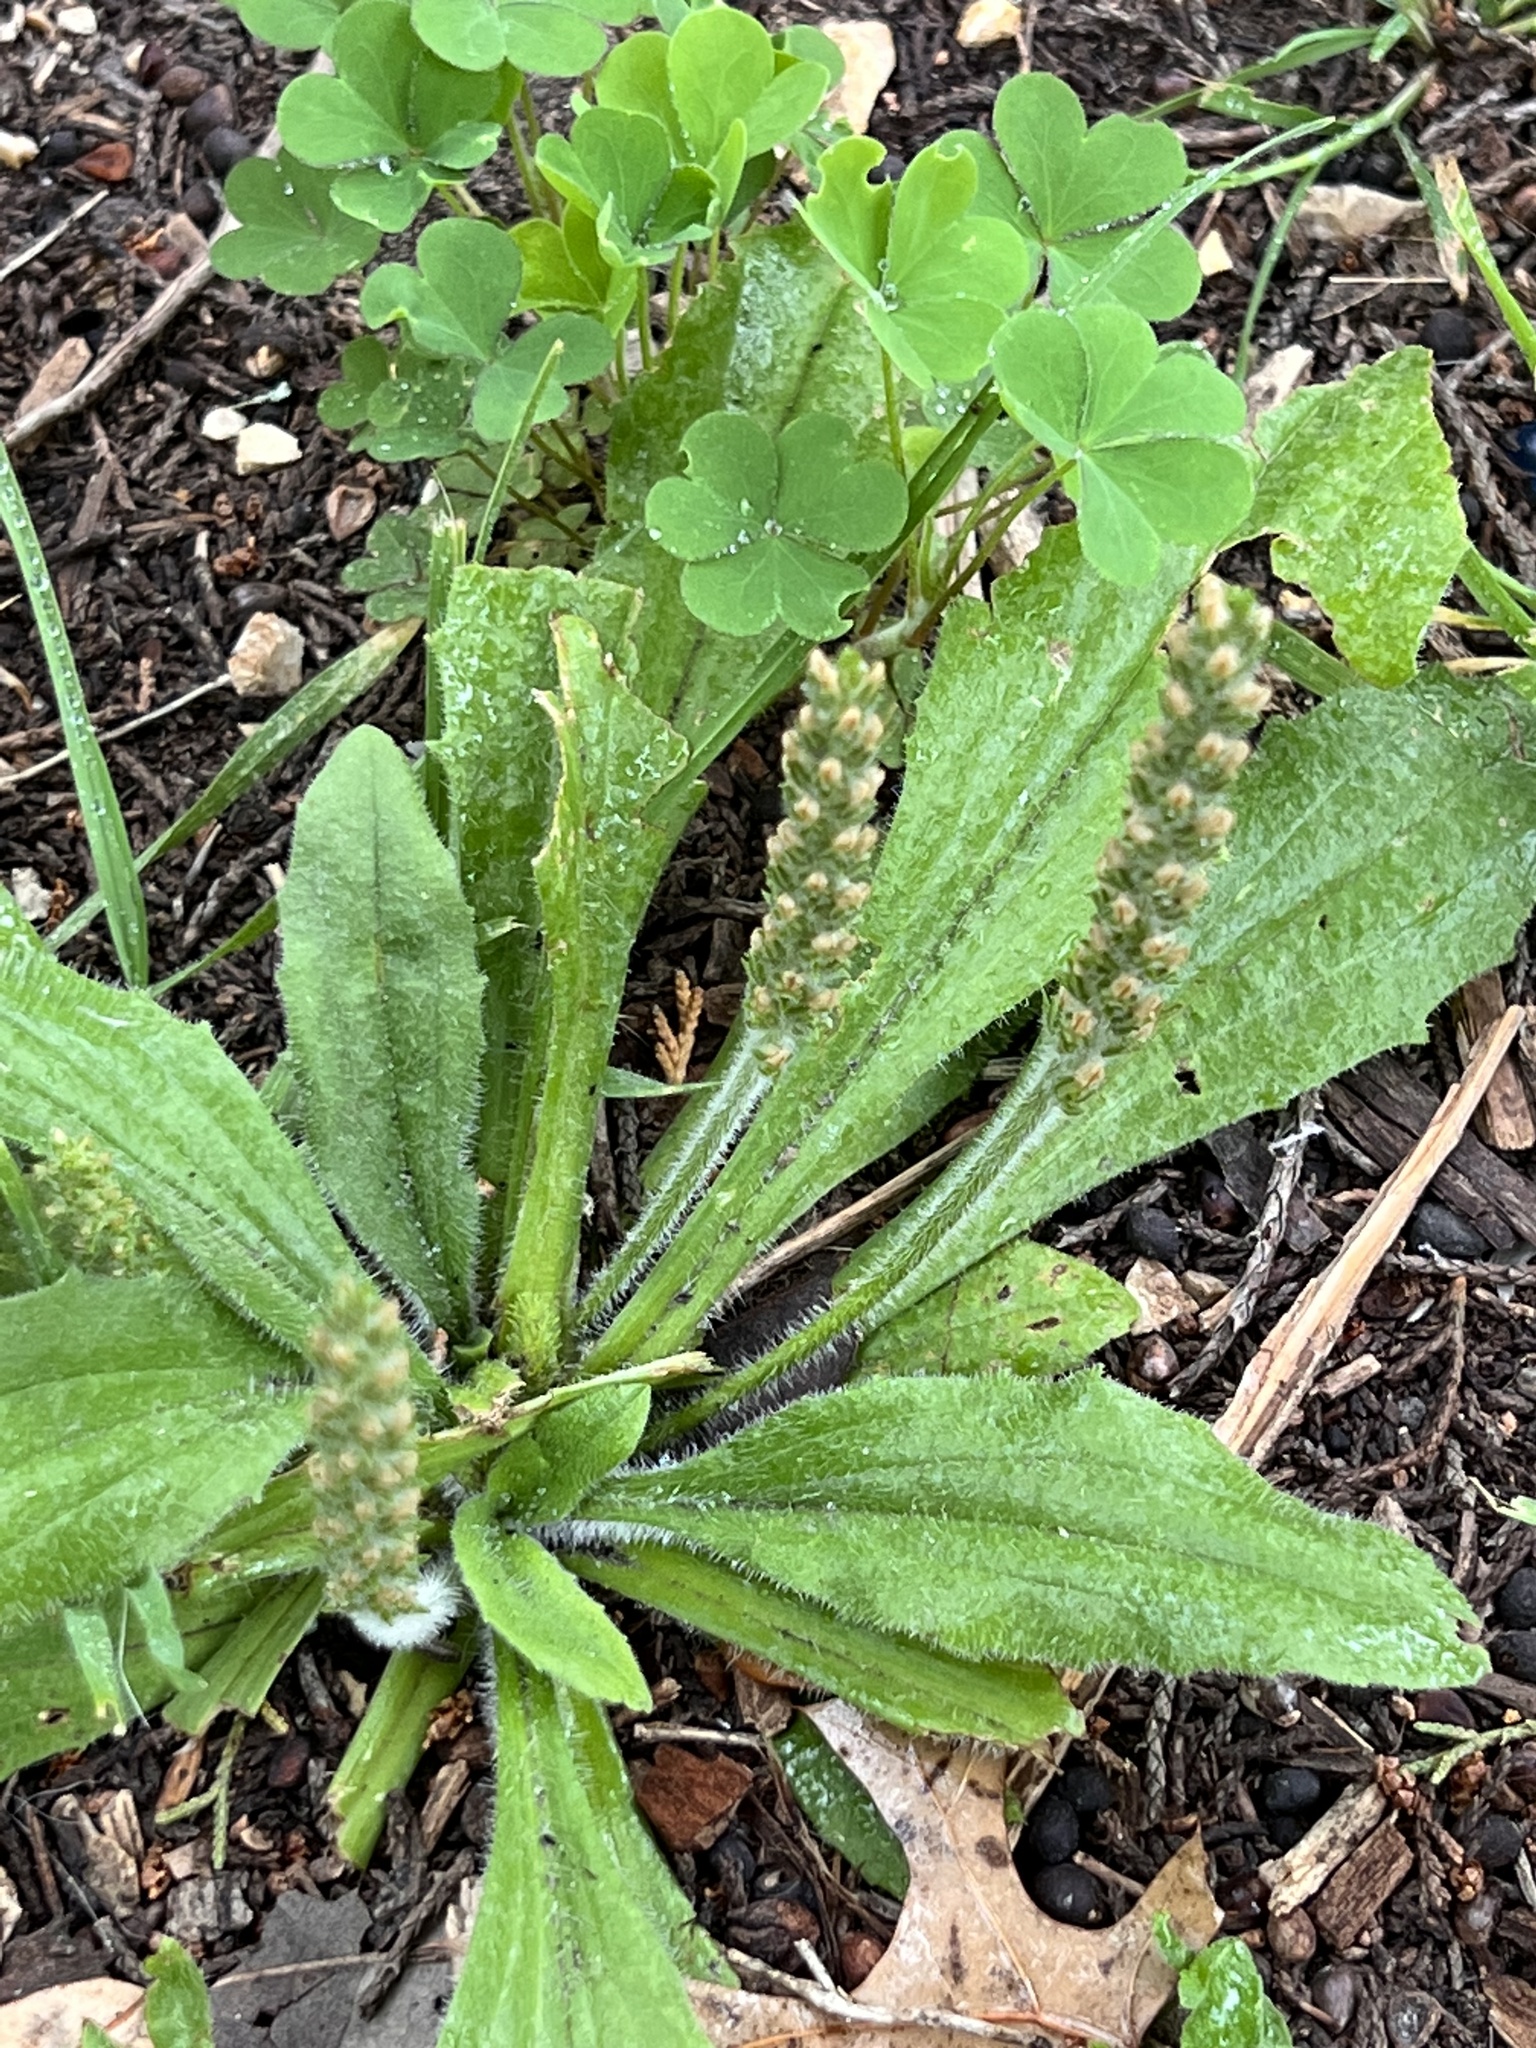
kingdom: Plantae
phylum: Tracheophyta
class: Magnoliopsida
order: Lamiales
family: Plantaginaceae
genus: Plantago
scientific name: Plantago virginica
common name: Hoary plantain
